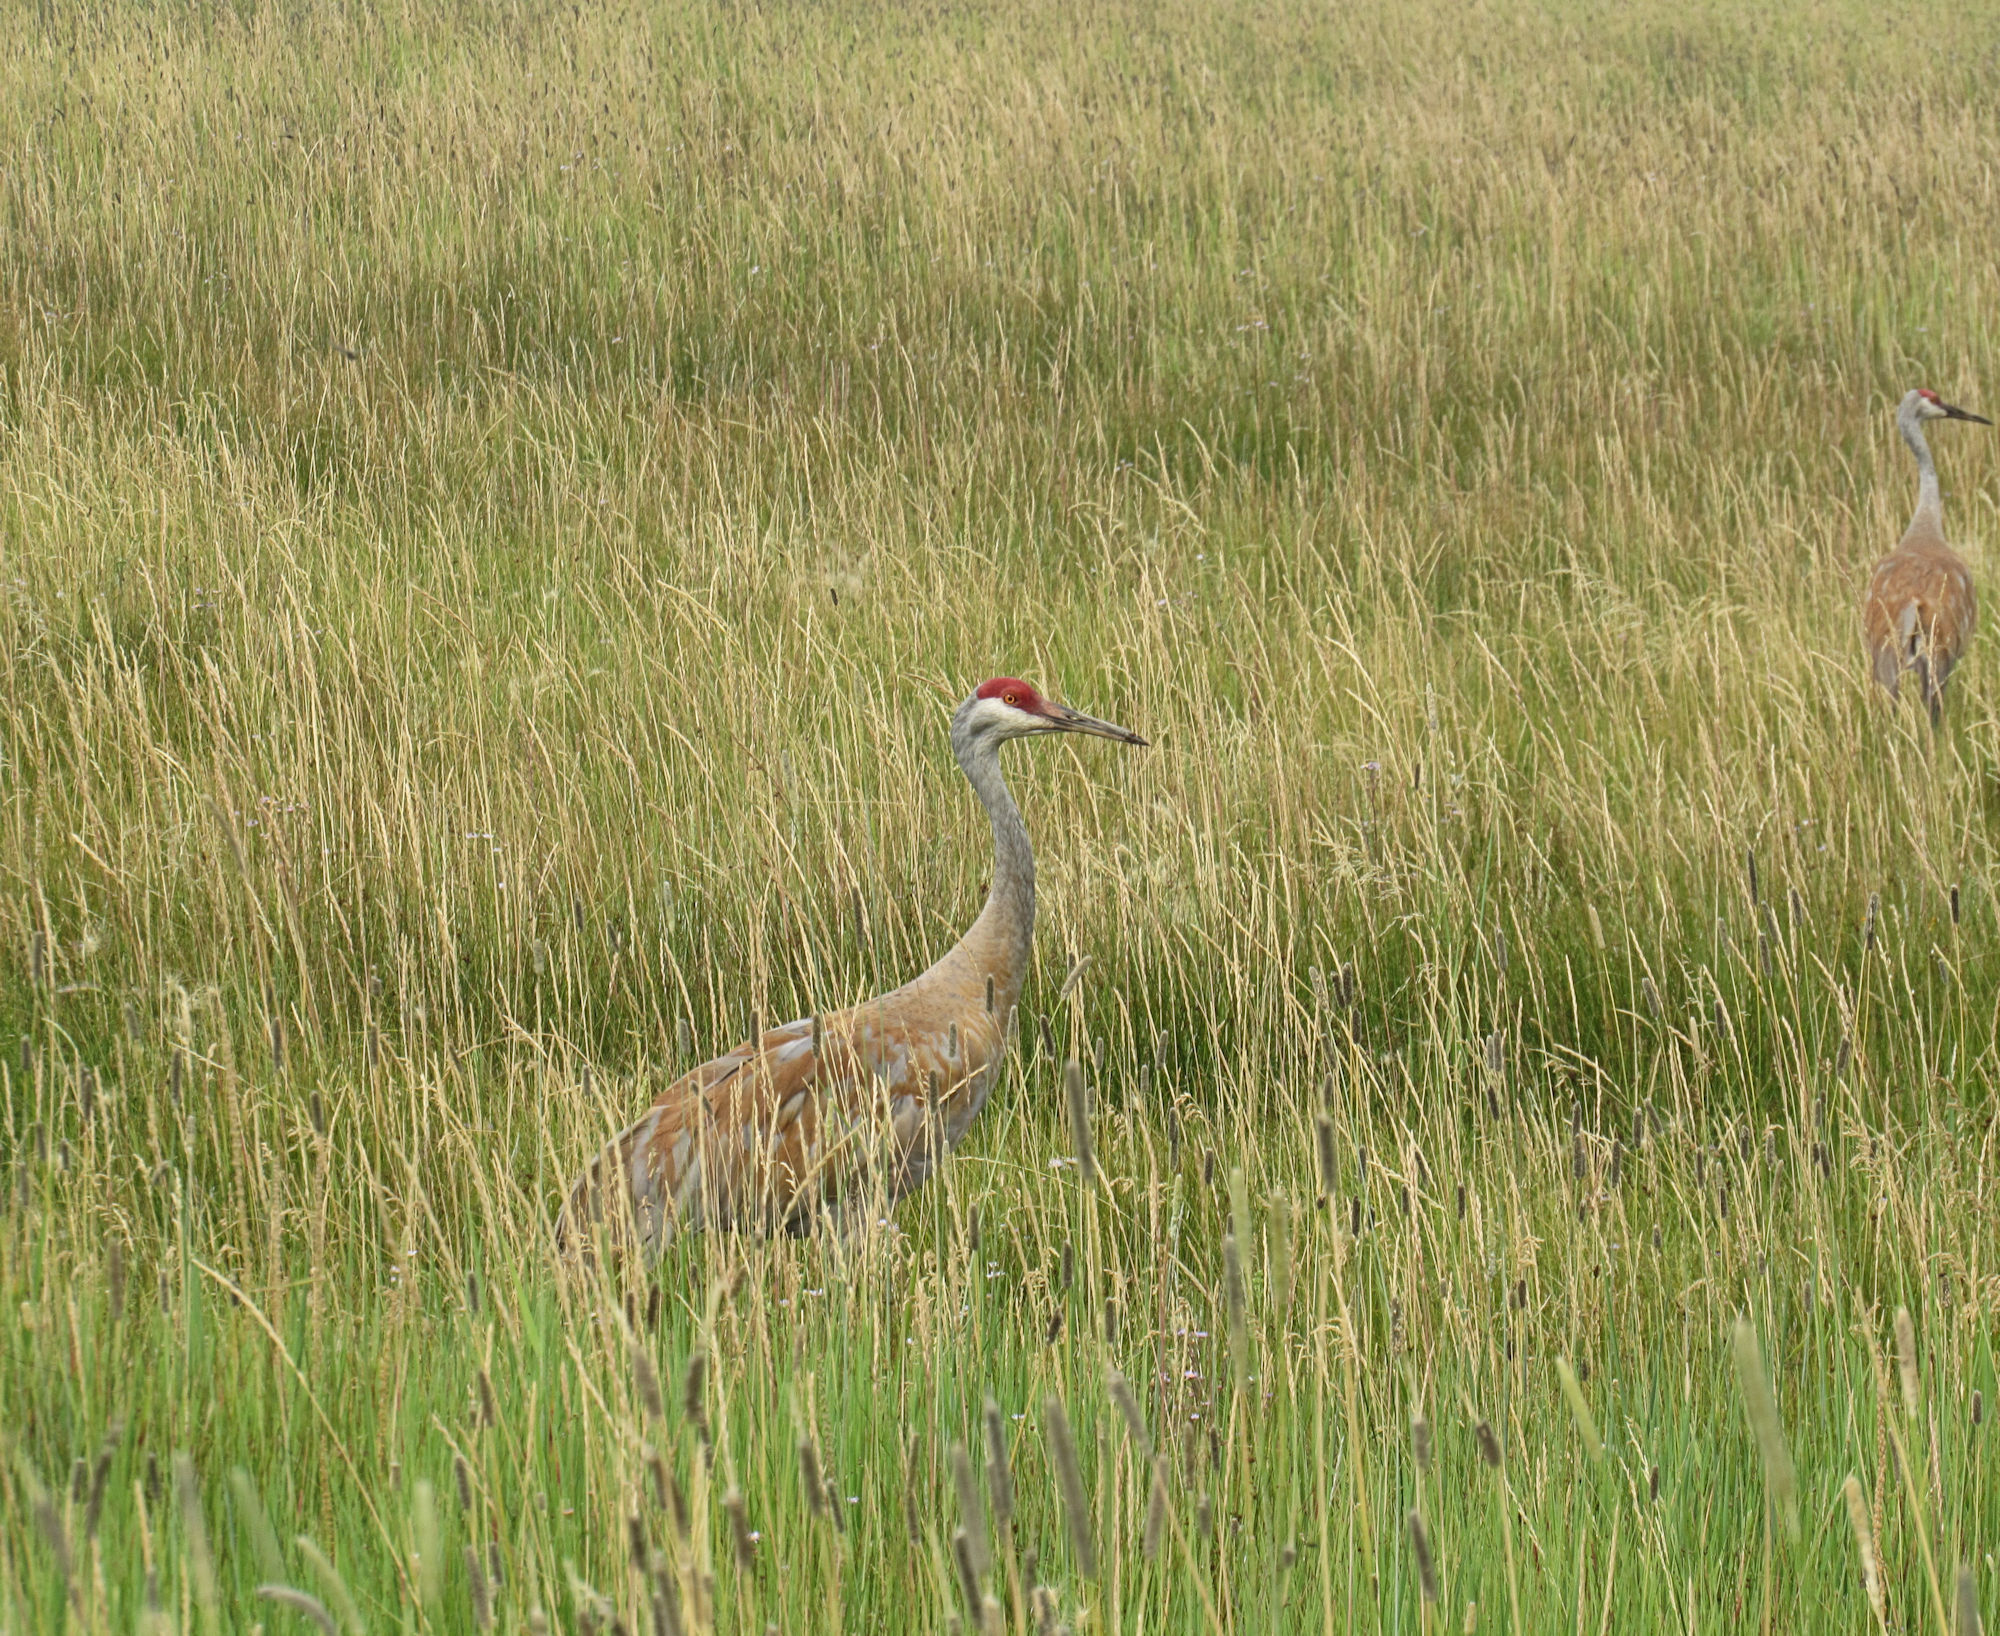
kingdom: Animalia
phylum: Chordata
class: Aves
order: Gruiformes
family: Gruidae
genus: Grus
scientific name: Grus canadensis
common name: Sandhill crane
